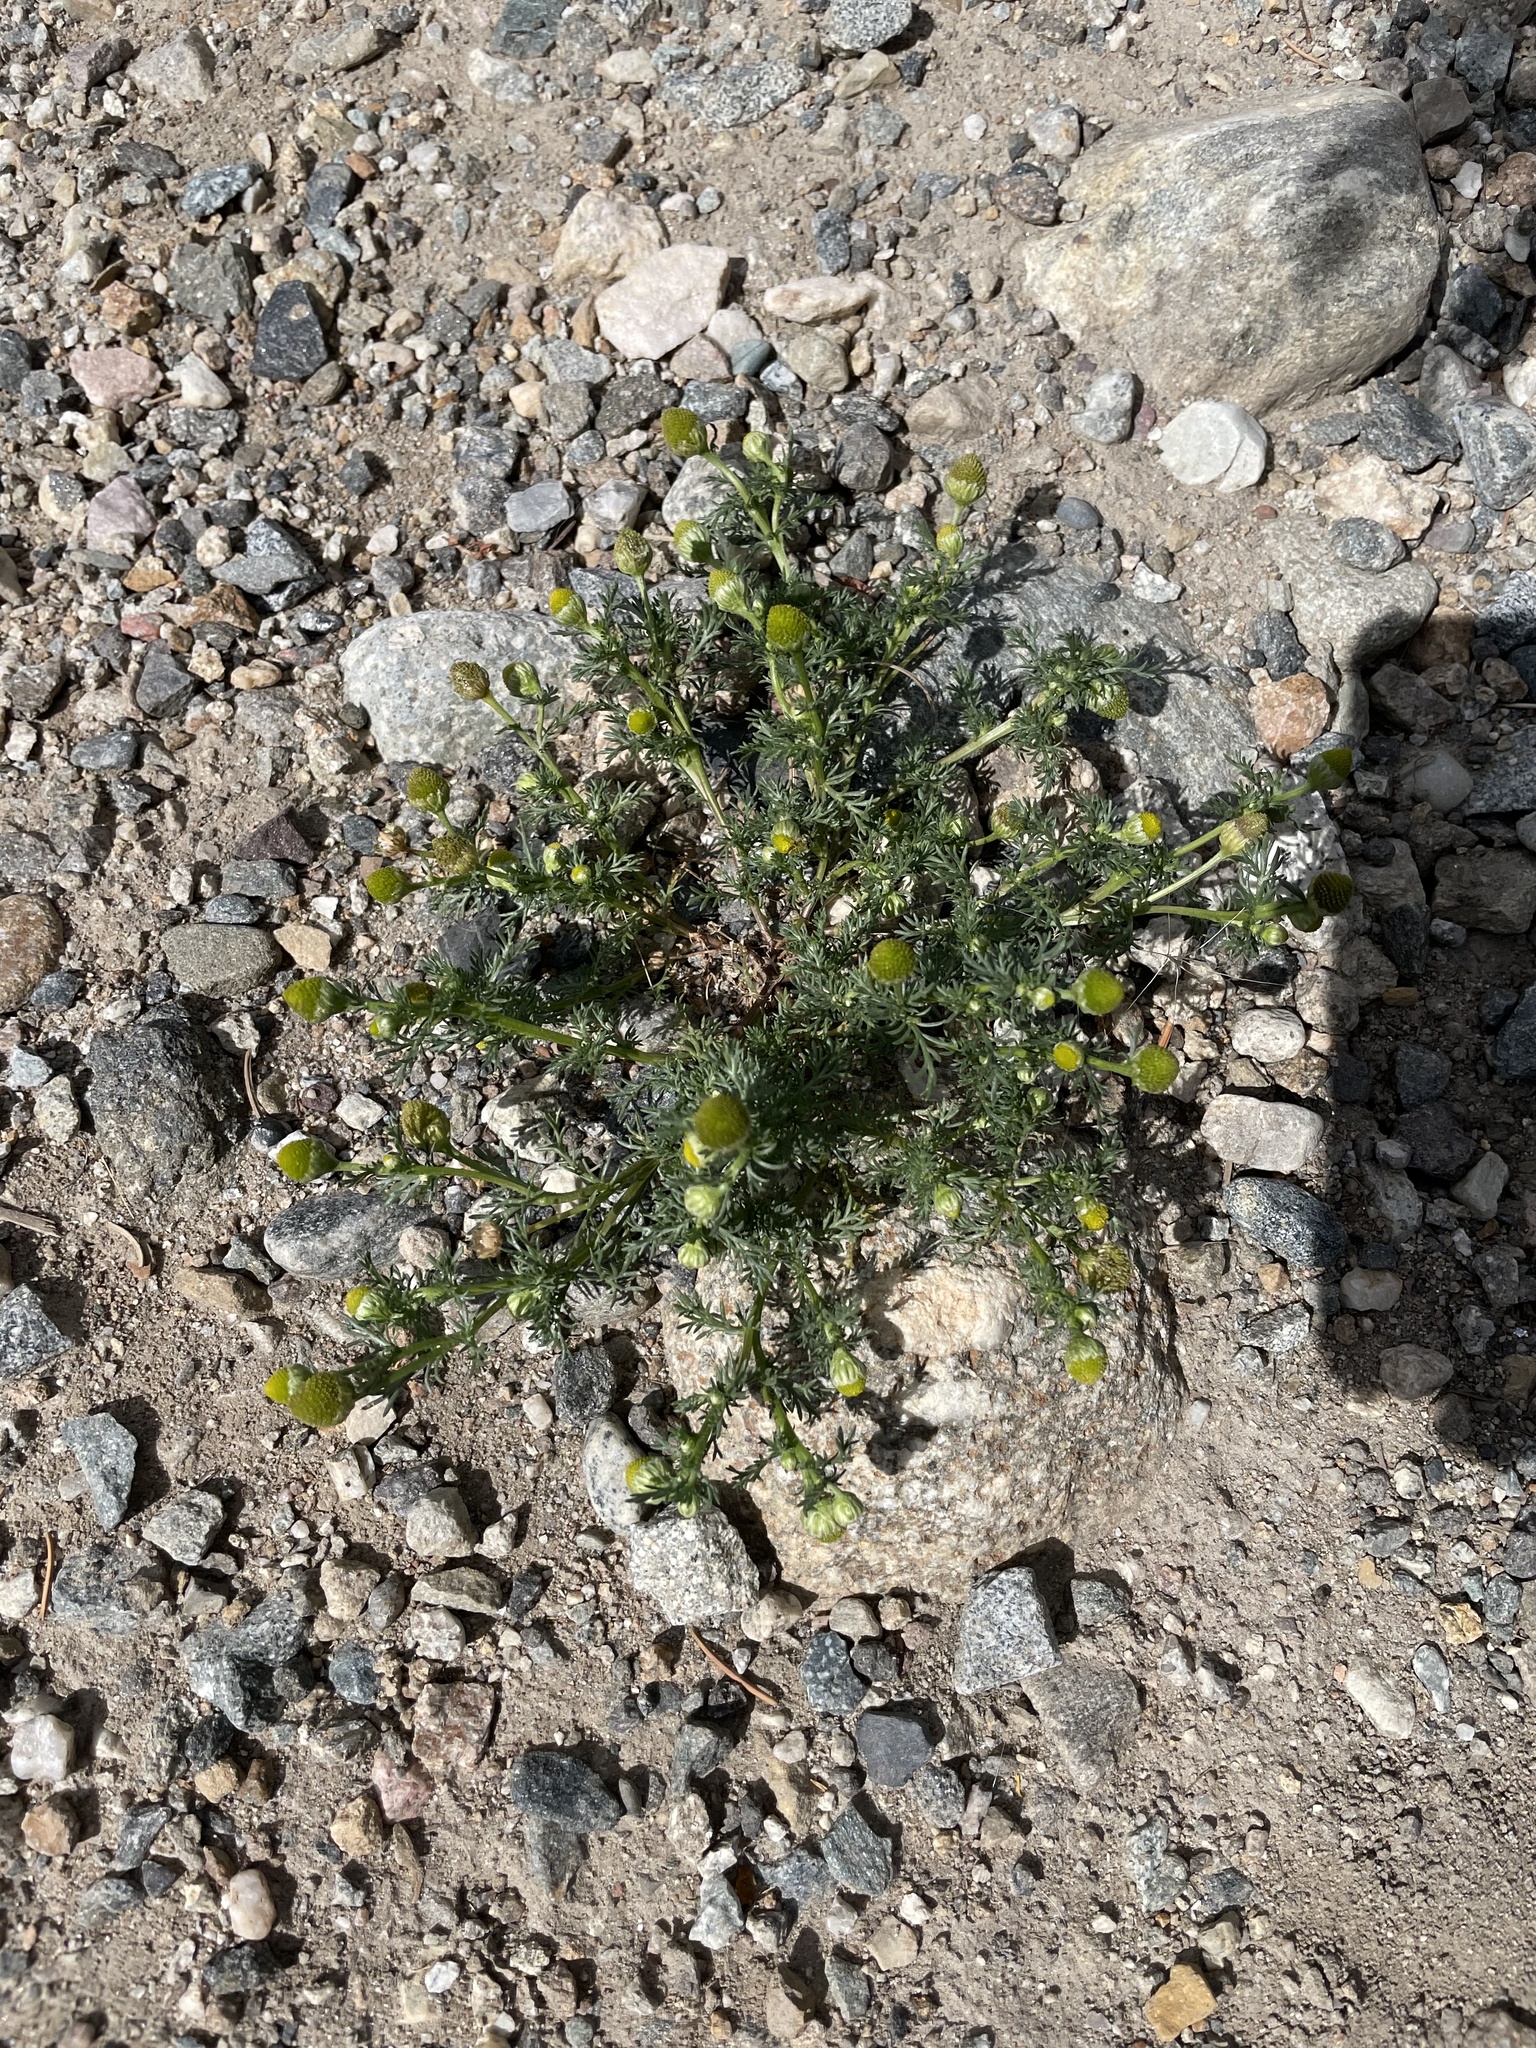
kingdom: Plantae
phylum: Tracheophyta
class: Magnoliopsida
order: Asterales
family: Asteraceae
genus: Matricaria
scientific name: Matricaria discoidea
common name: Disc mayweed
